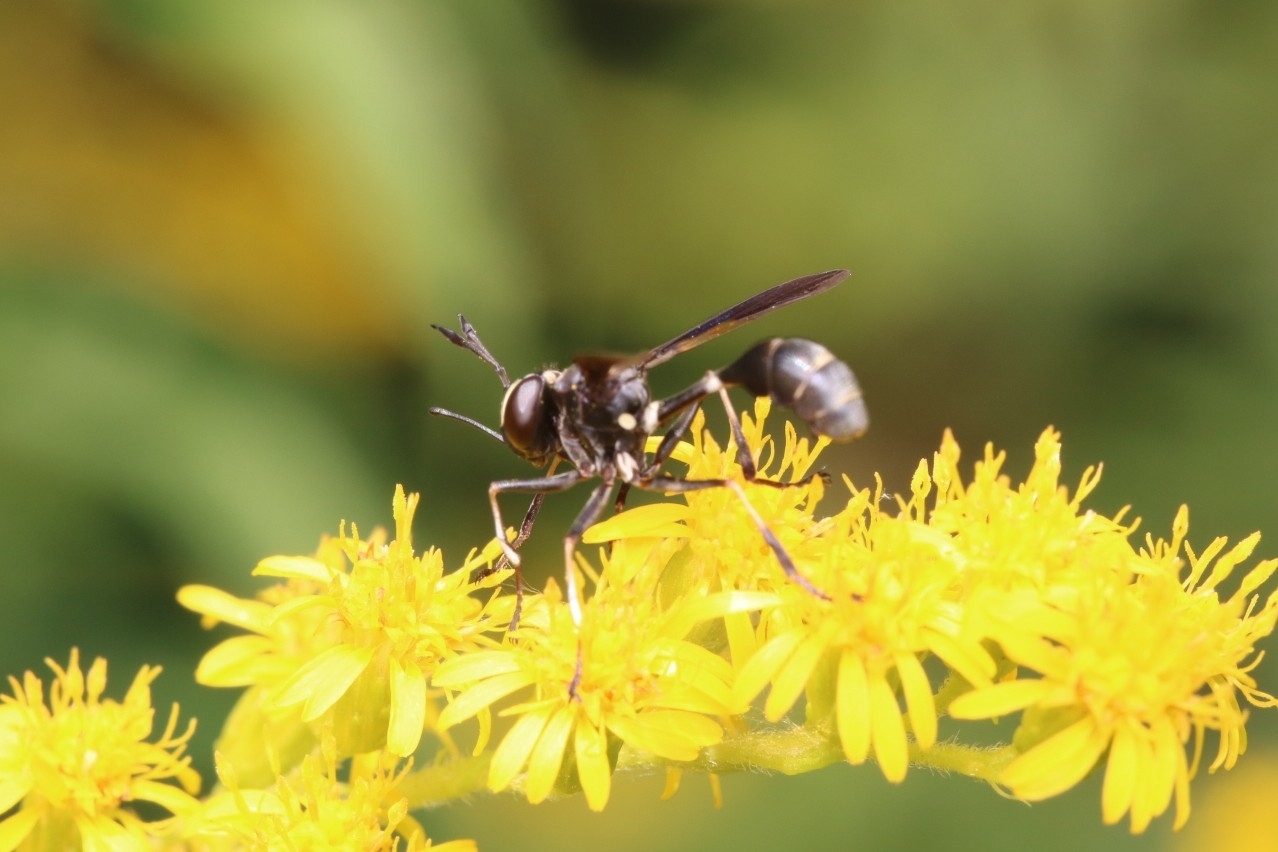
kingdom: Animalia
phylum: Arthropoda
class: Insecta
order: Diptera
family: Conopidae
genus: Physocephala
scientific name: Physocephala tibialis
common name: Common eastern physocephala
